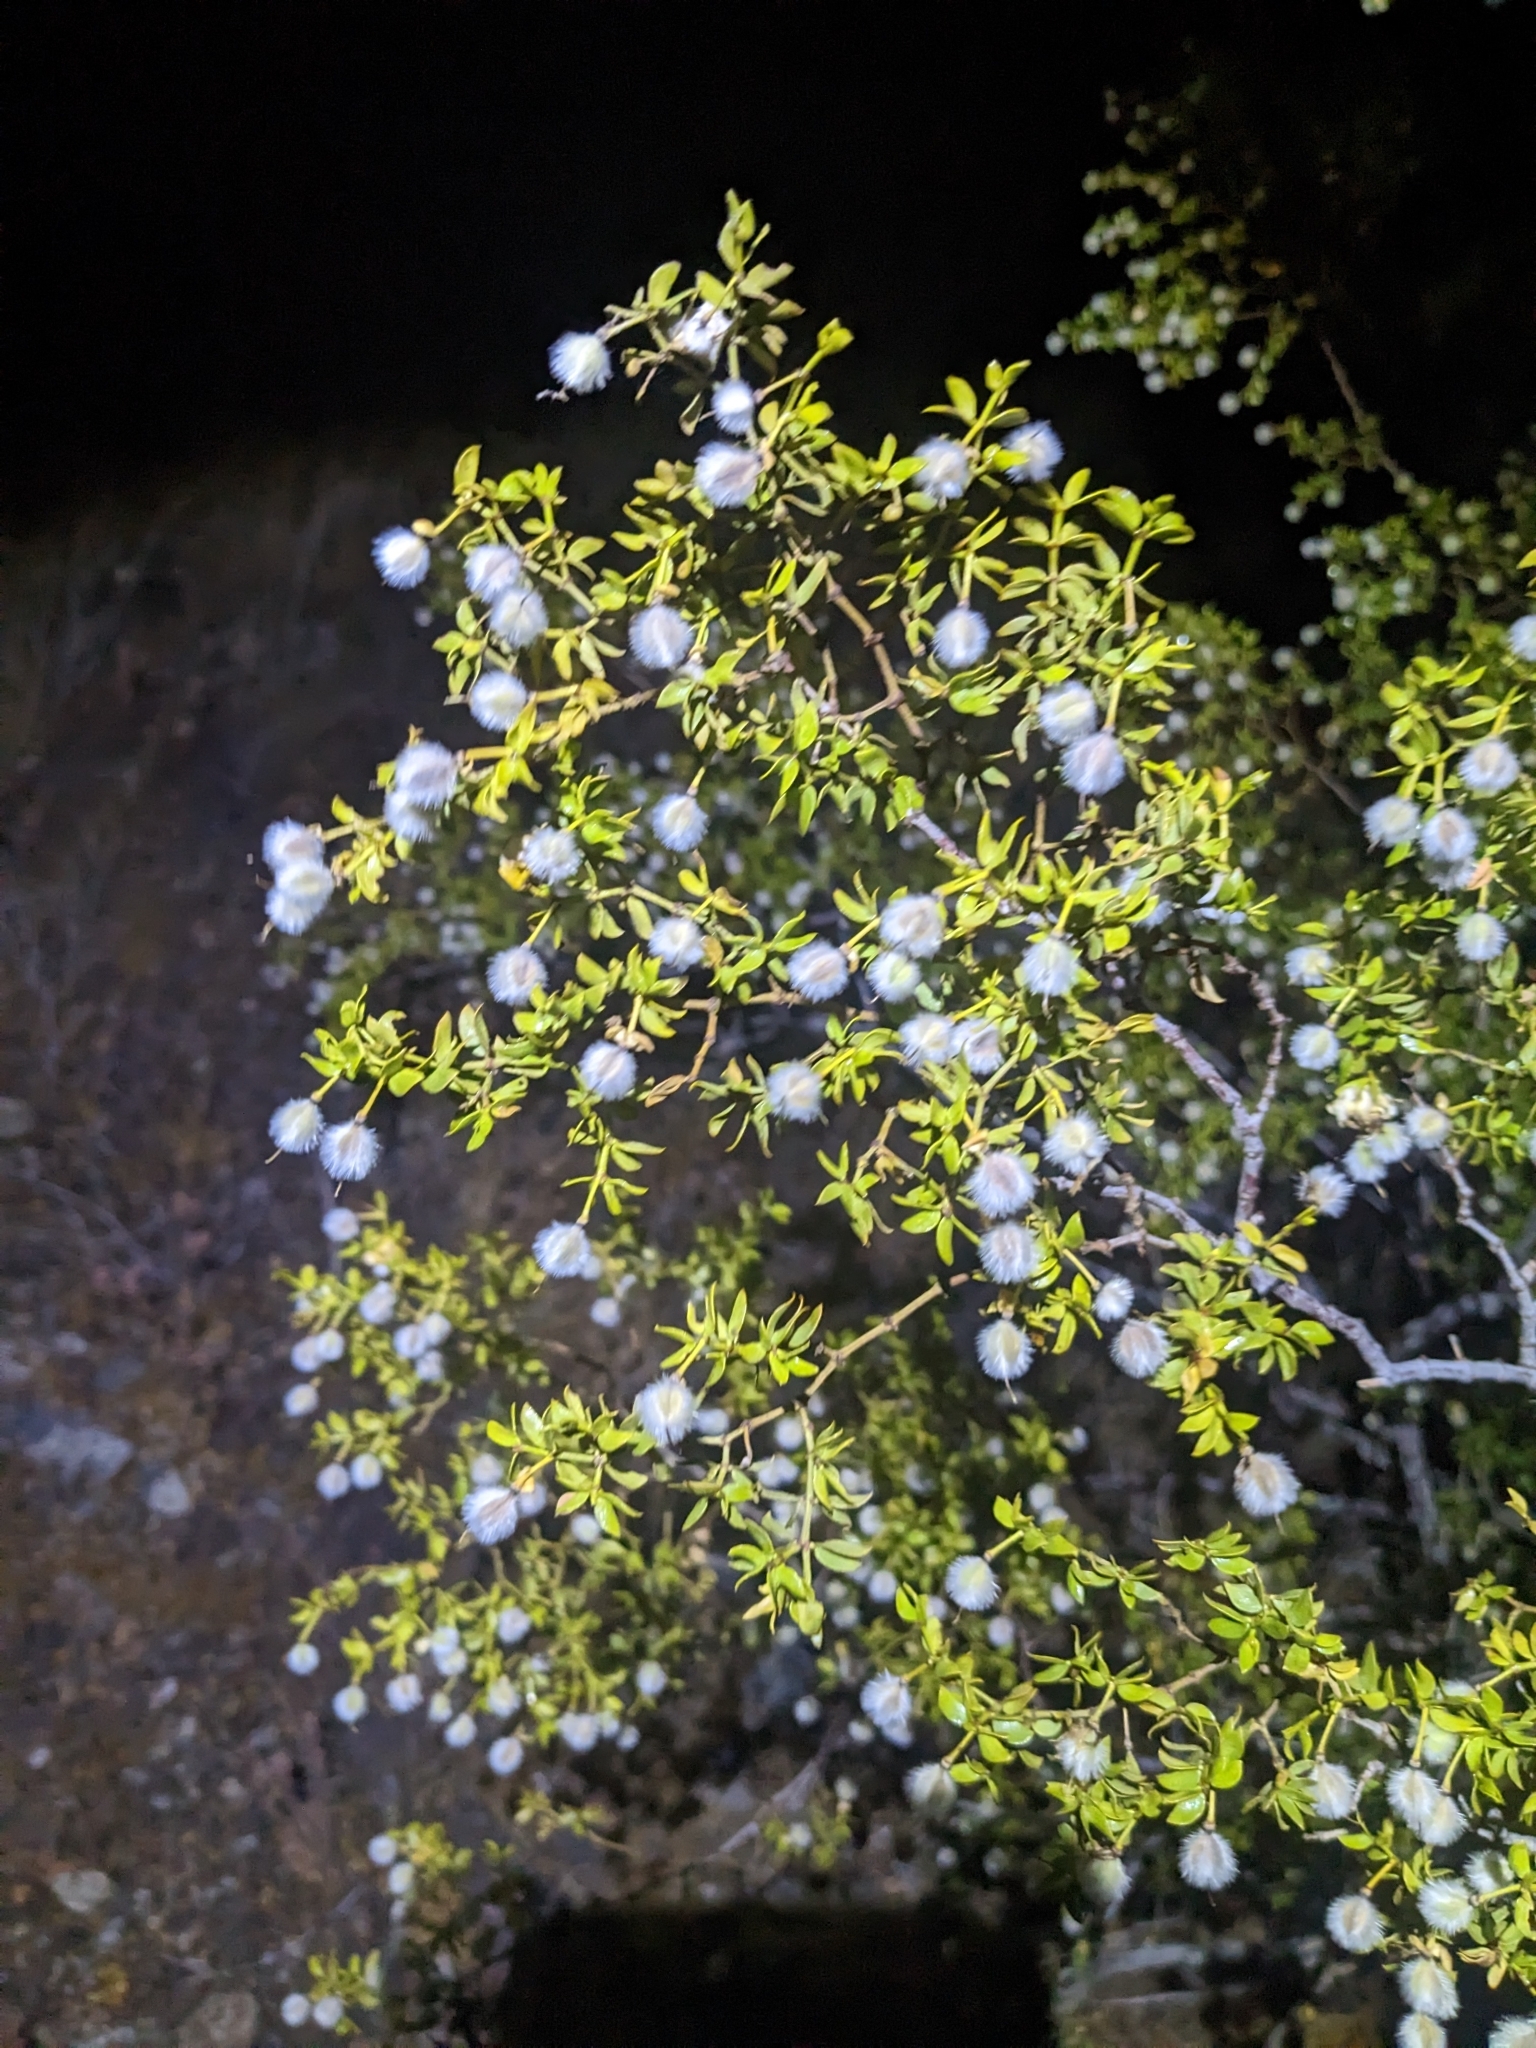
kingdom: Plantae
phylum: Tracheophyta
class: Magnoliopsida
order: Zygophyllales
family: Zygophyllaceae
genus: Larrea
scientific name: Larrea tridentata
